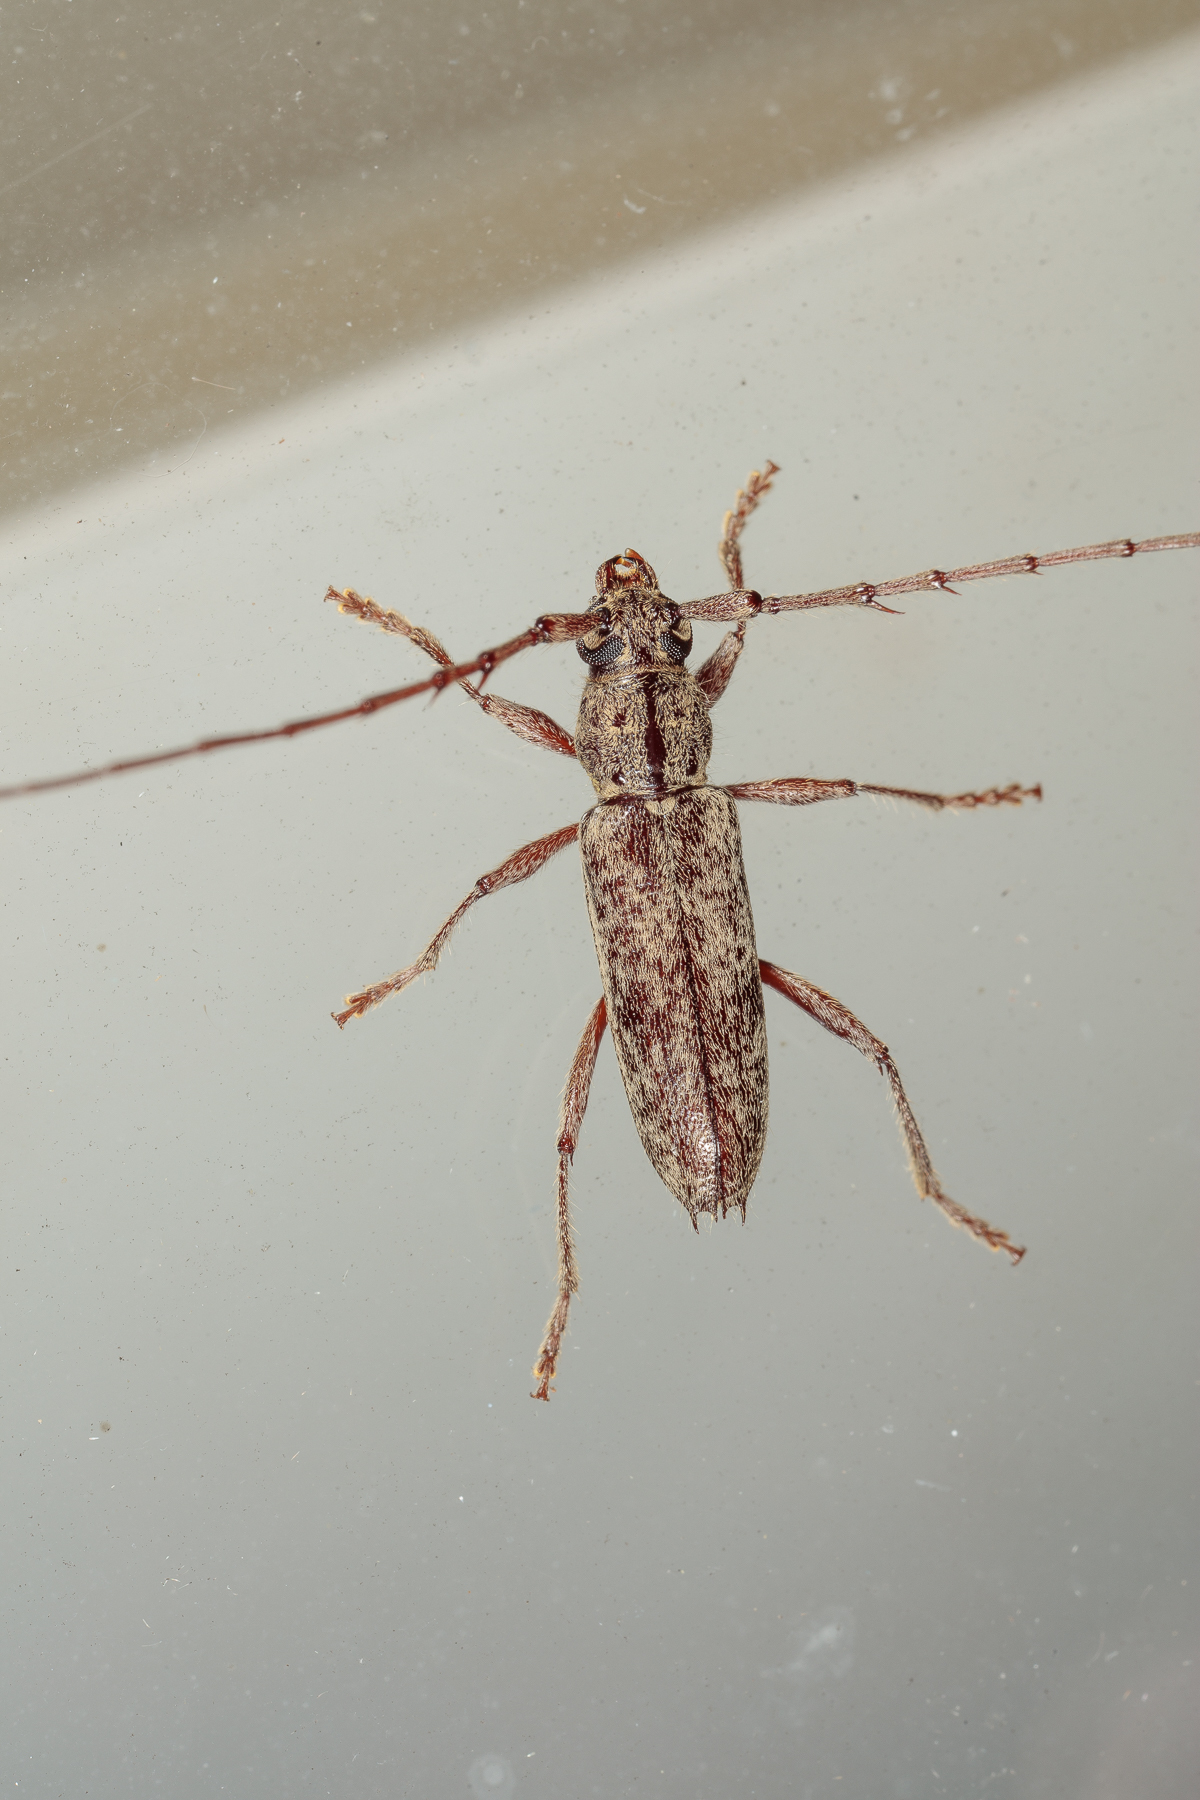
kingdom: Animalia
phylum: Arthropoda
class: Insecta
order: Coleoptera
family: Cerambycidae
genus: Elaphidion
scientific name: Elaphidion mucronatum
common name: Spined oak borer
